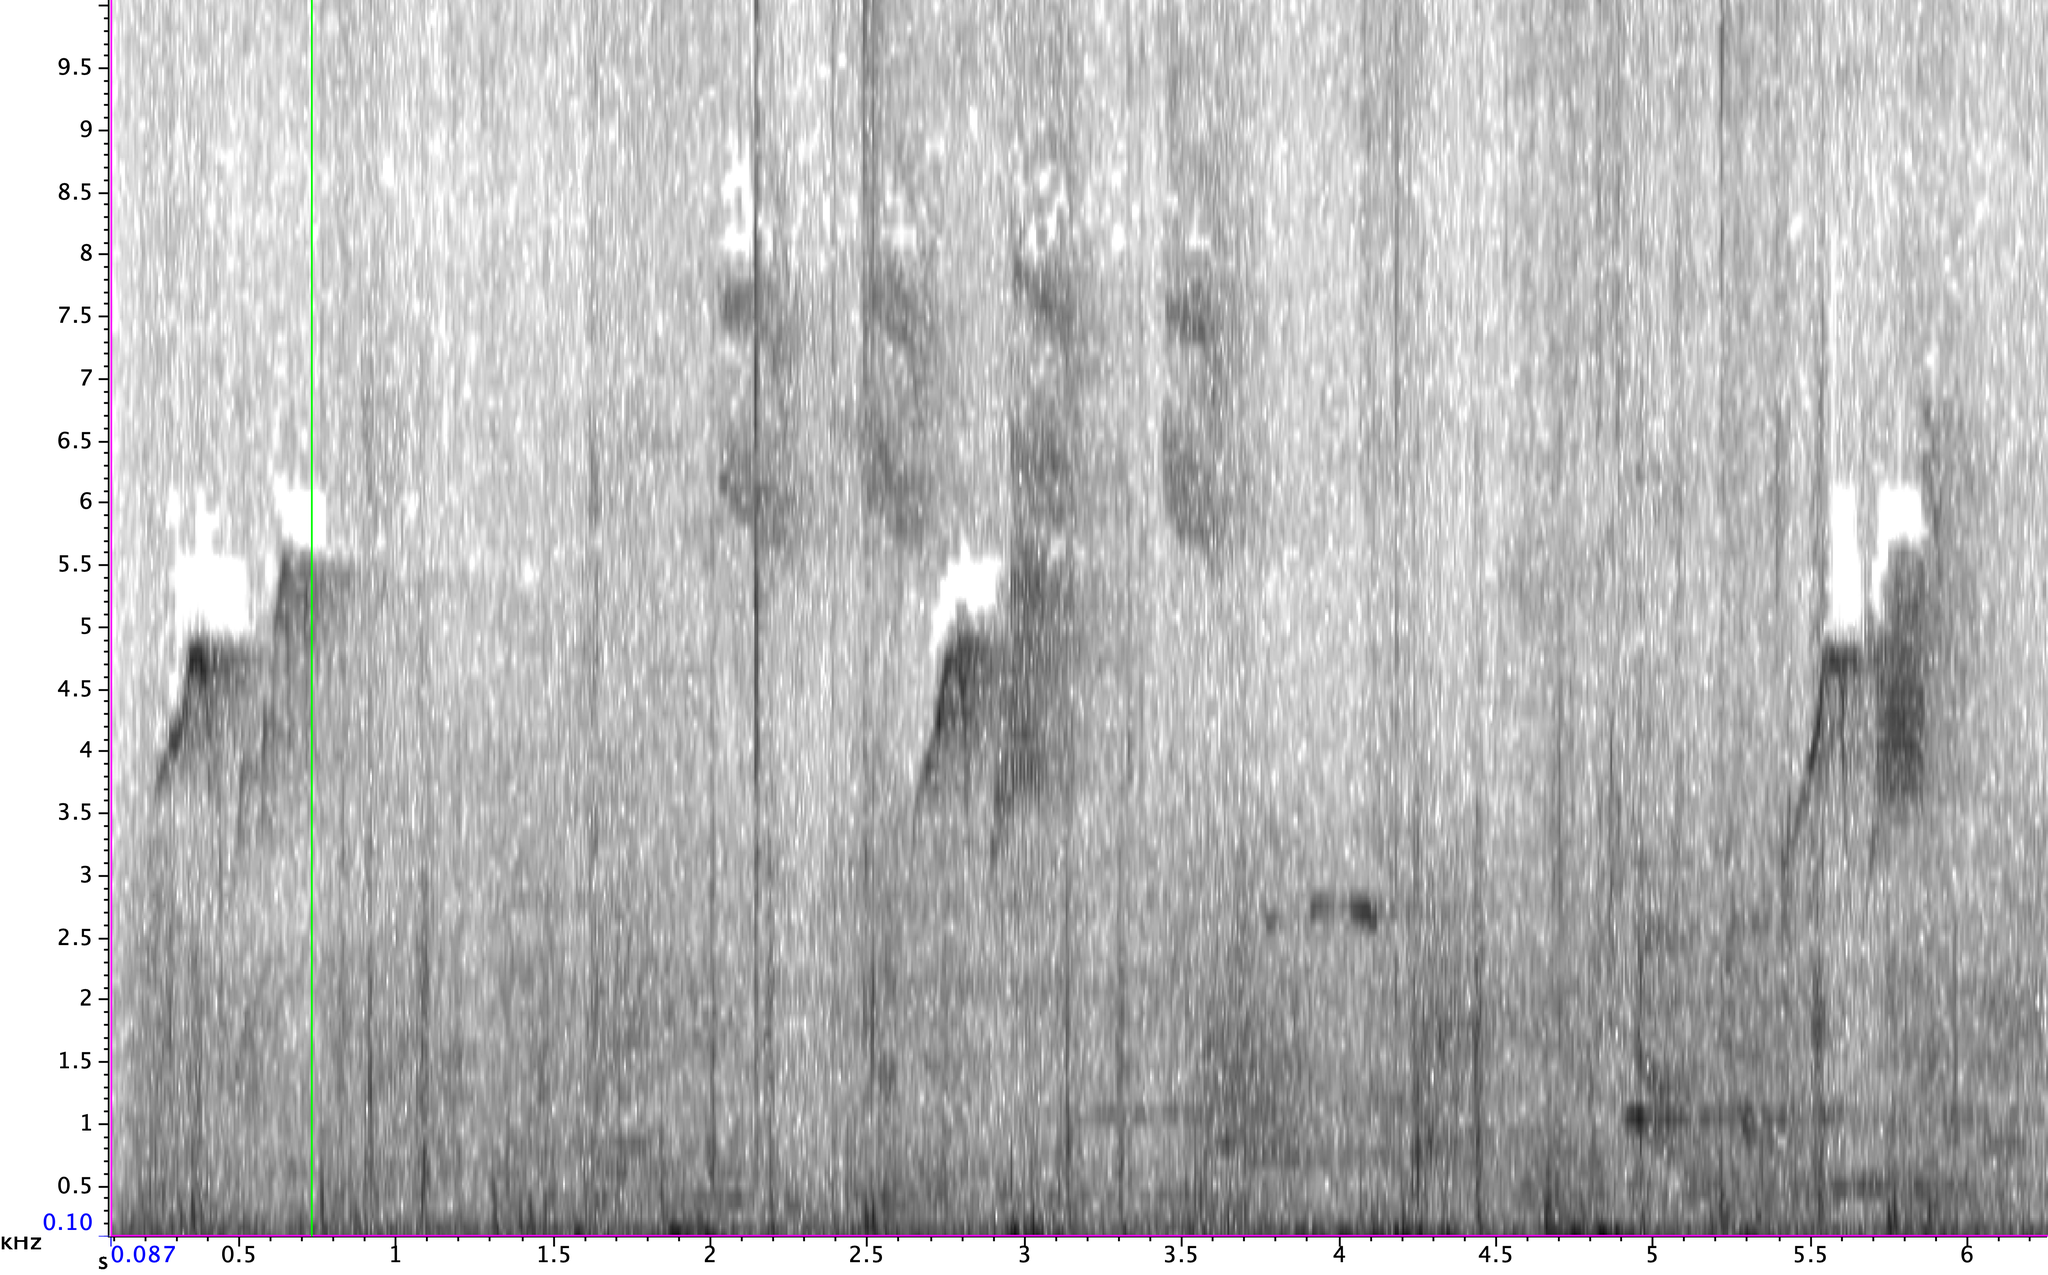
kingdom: Animalia
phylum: Chordata
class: Aves
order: Passeriformes
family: Tyrannidae
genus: Sayornis
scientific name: Sayornis phoebe
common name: Eastern phoebe
